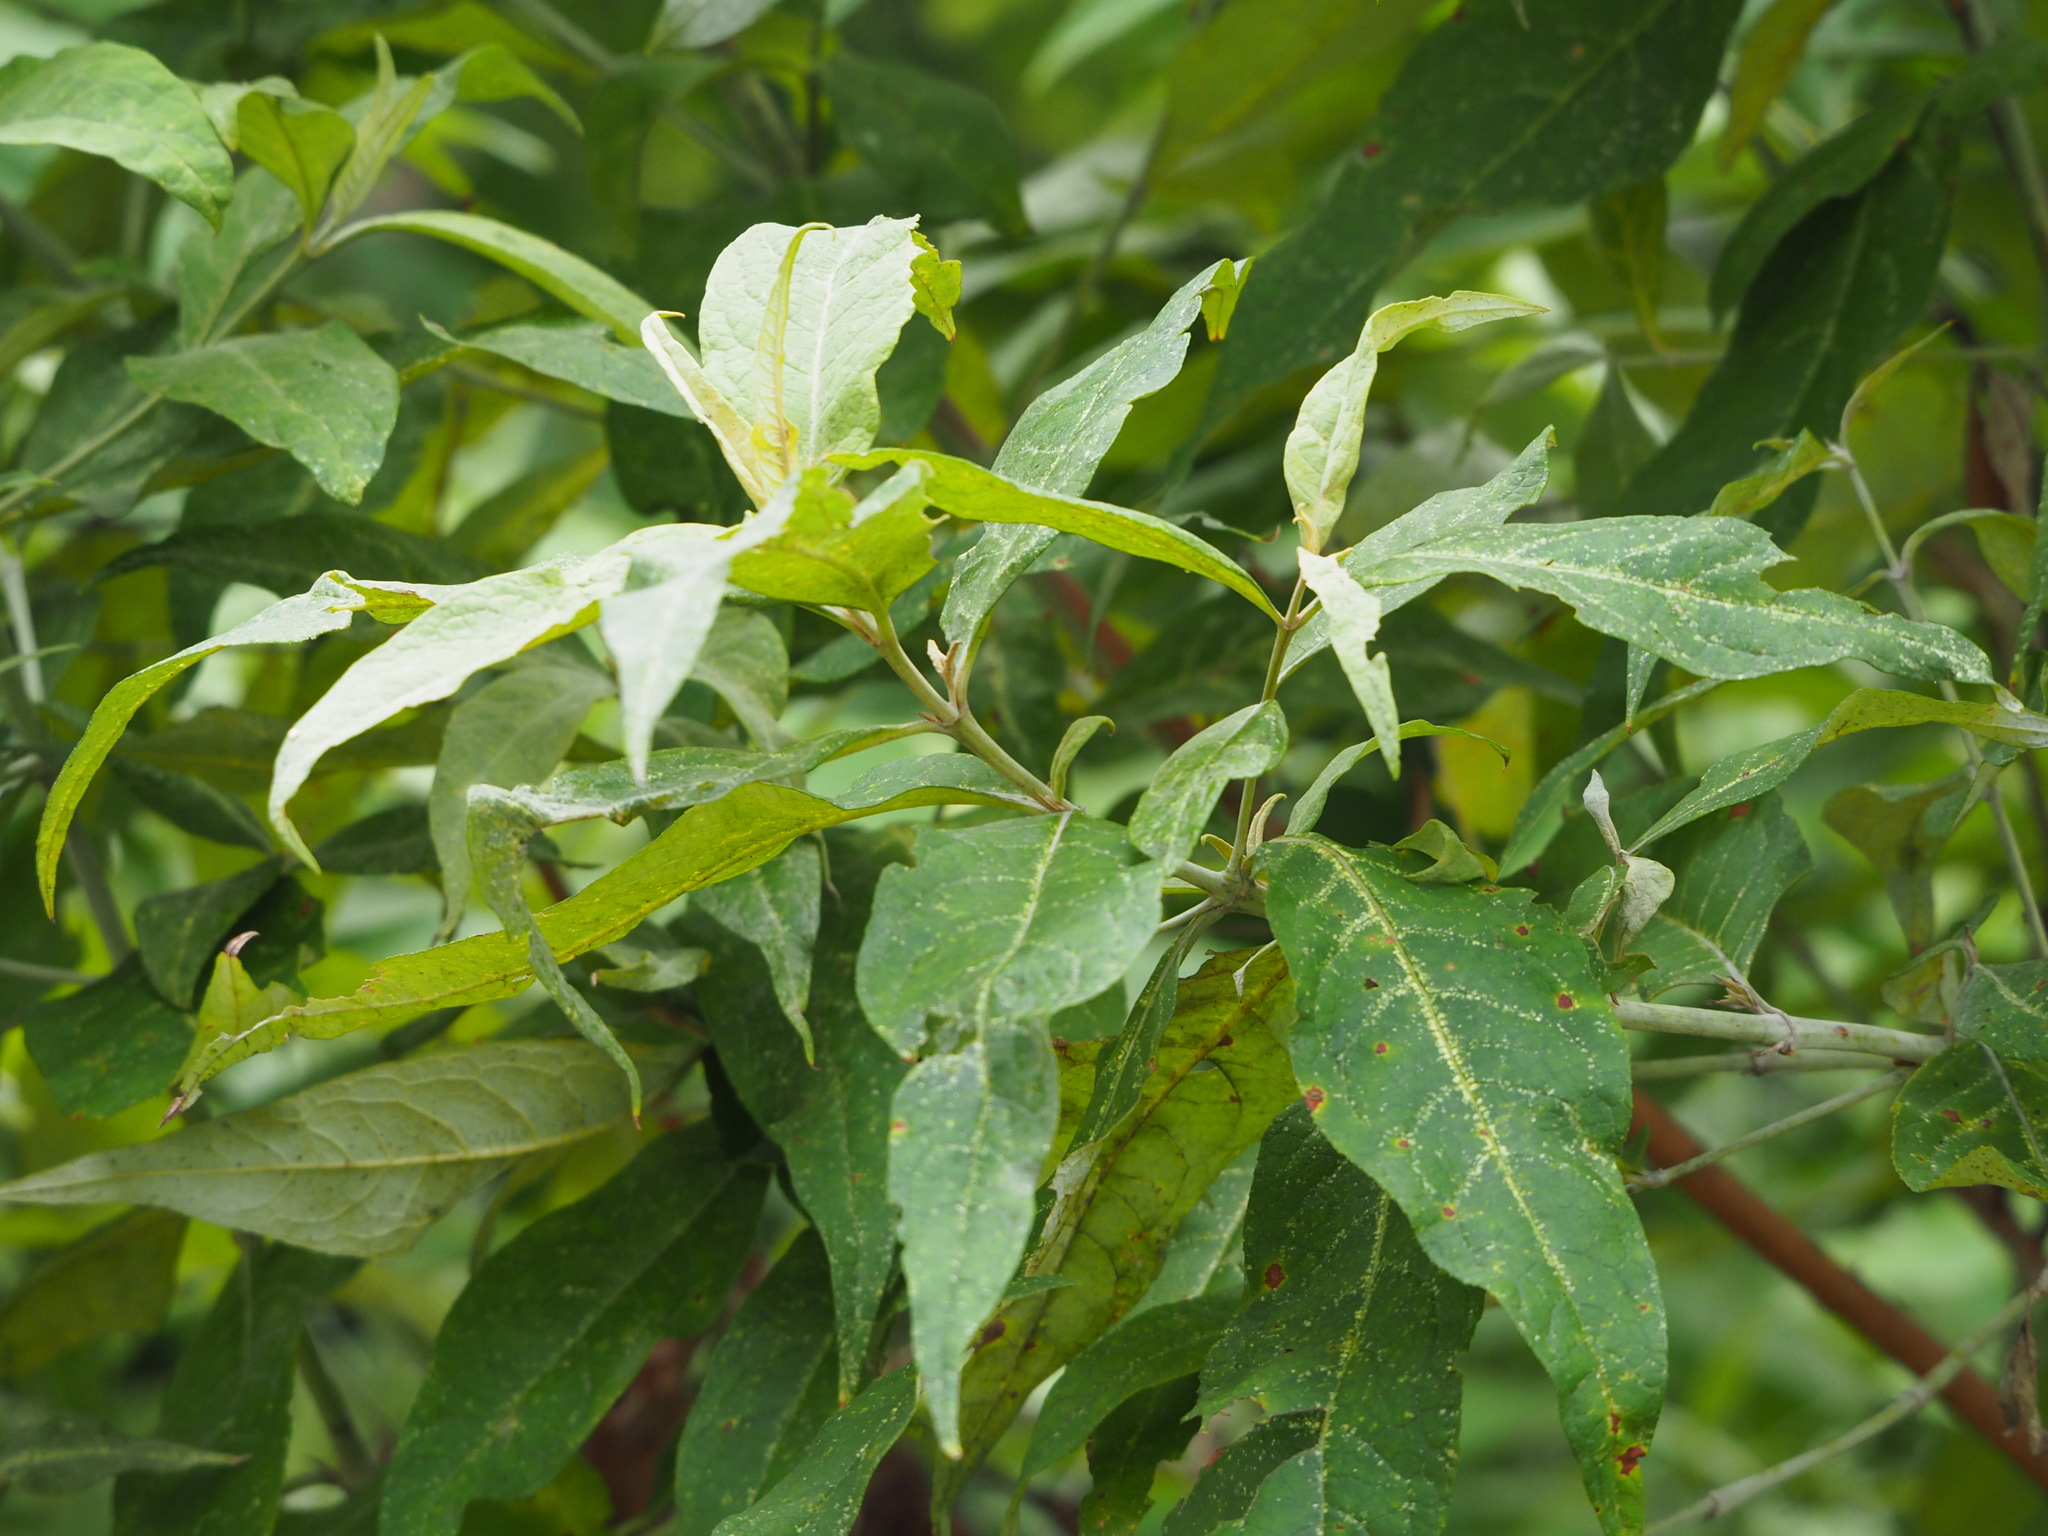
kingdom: Plantae
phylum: Tracheophyta
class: Magnoliopsida
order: Lamiales
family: Scrophulariaceae
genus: Buddleja
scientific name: Buddleja asiatica
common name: Dog tail
